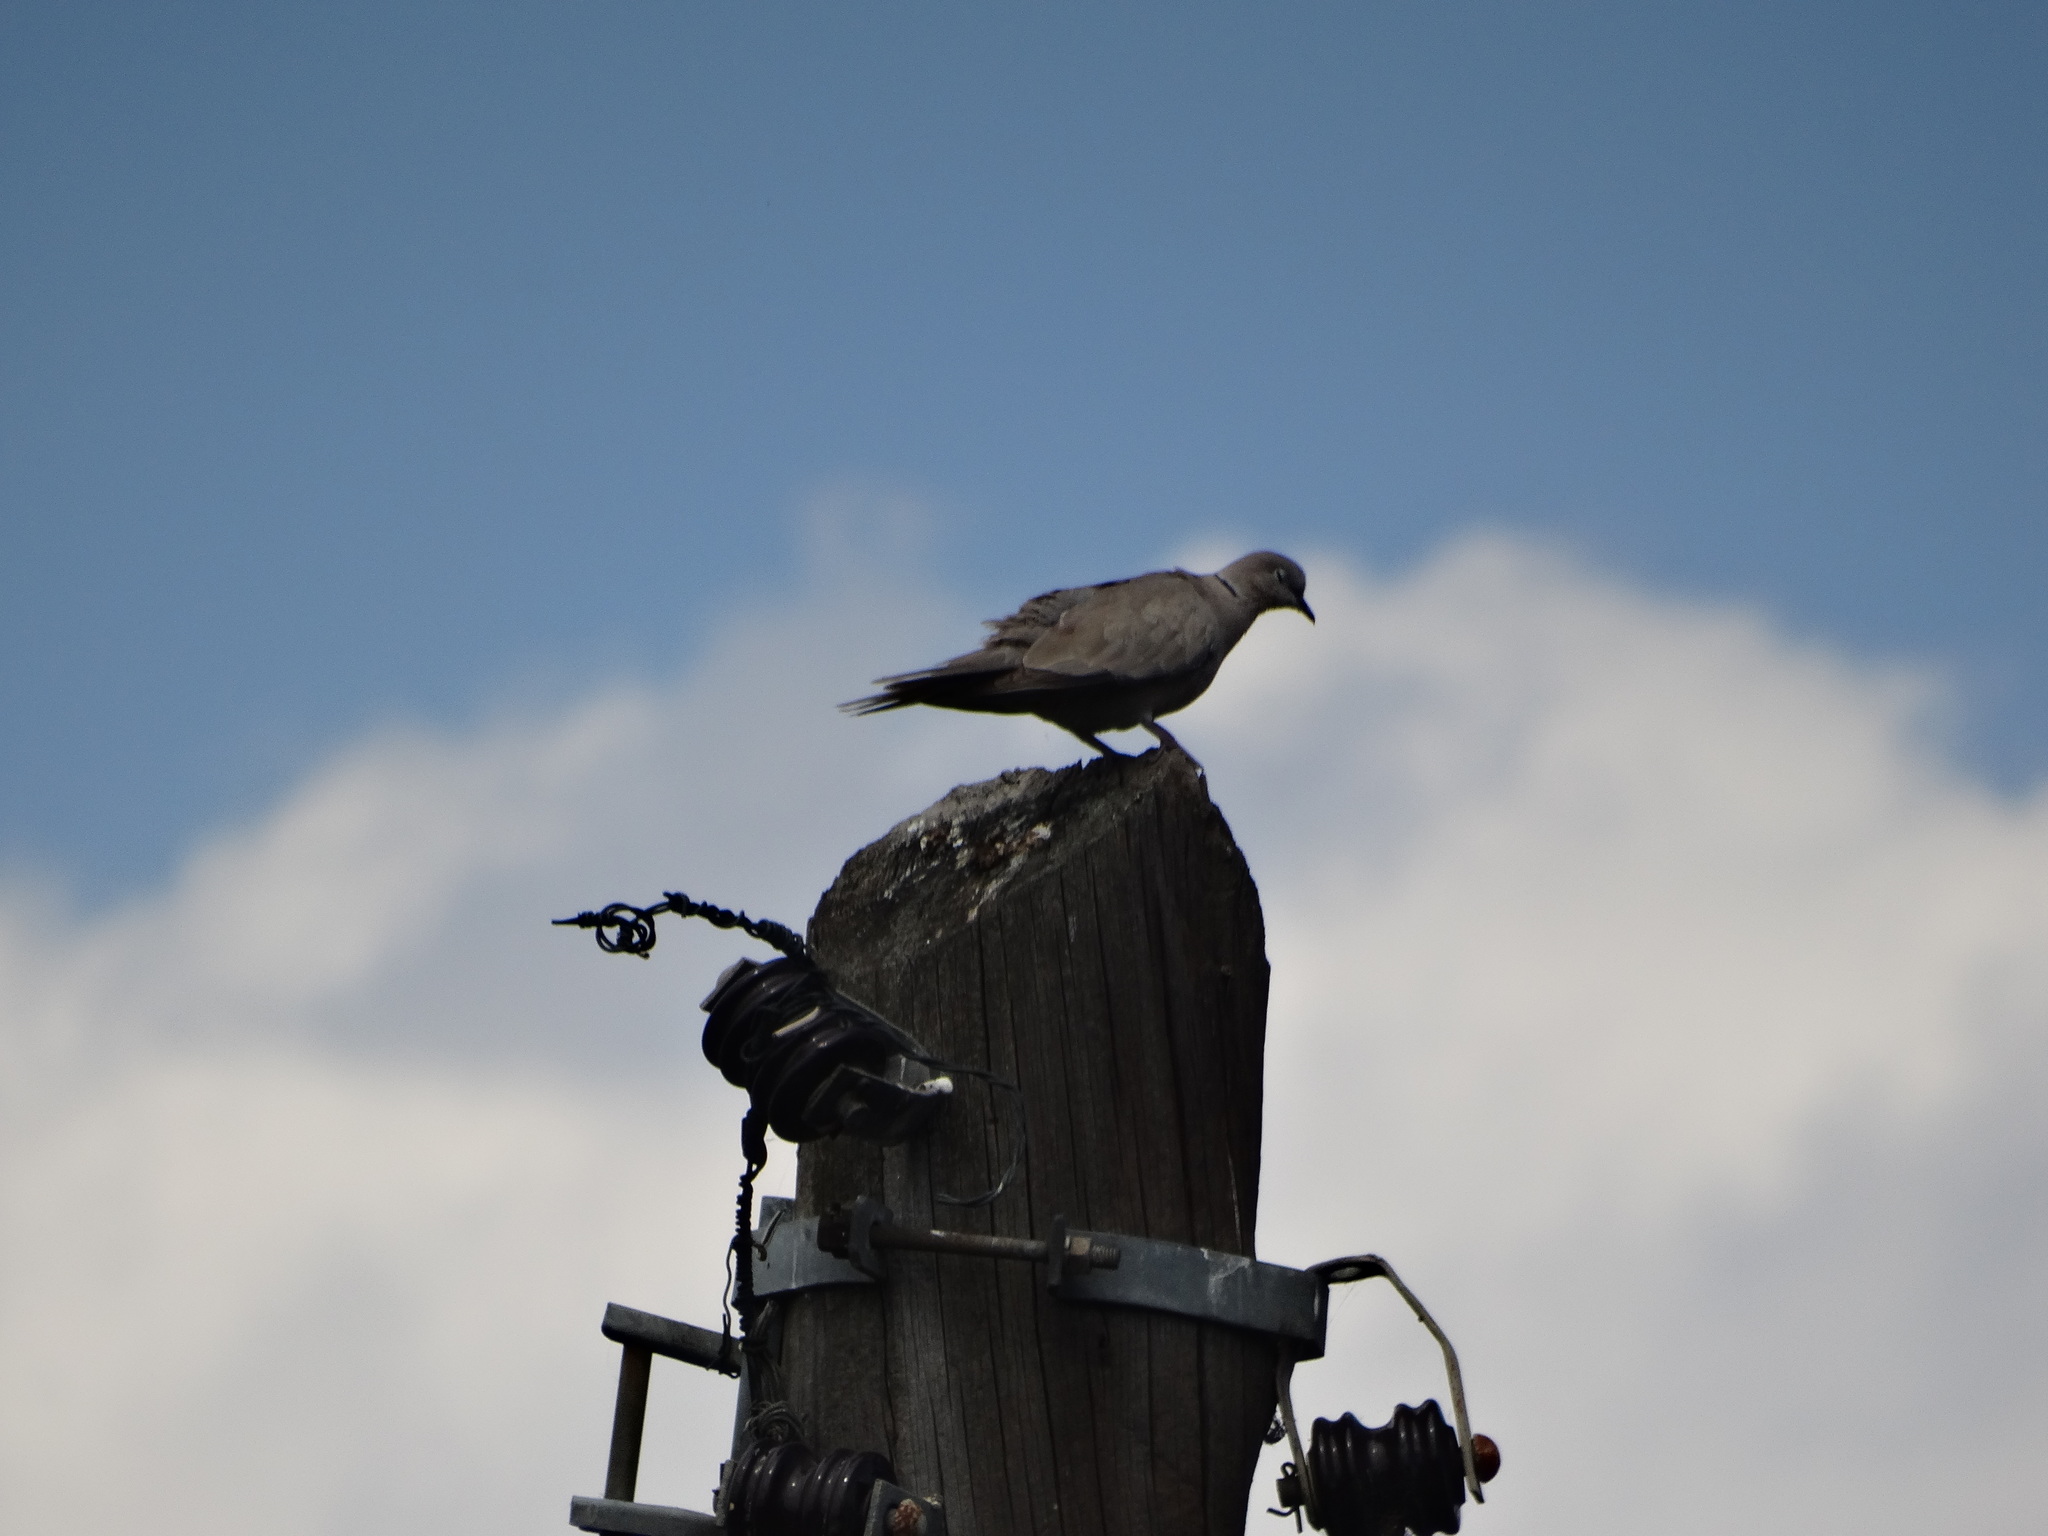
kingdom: Animalia
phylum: Chordata
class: Aves
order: Columbiformes
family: Columbidae
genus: Streptopelia
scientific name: Streptopelia decaocto
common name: Eurasian collared dove
